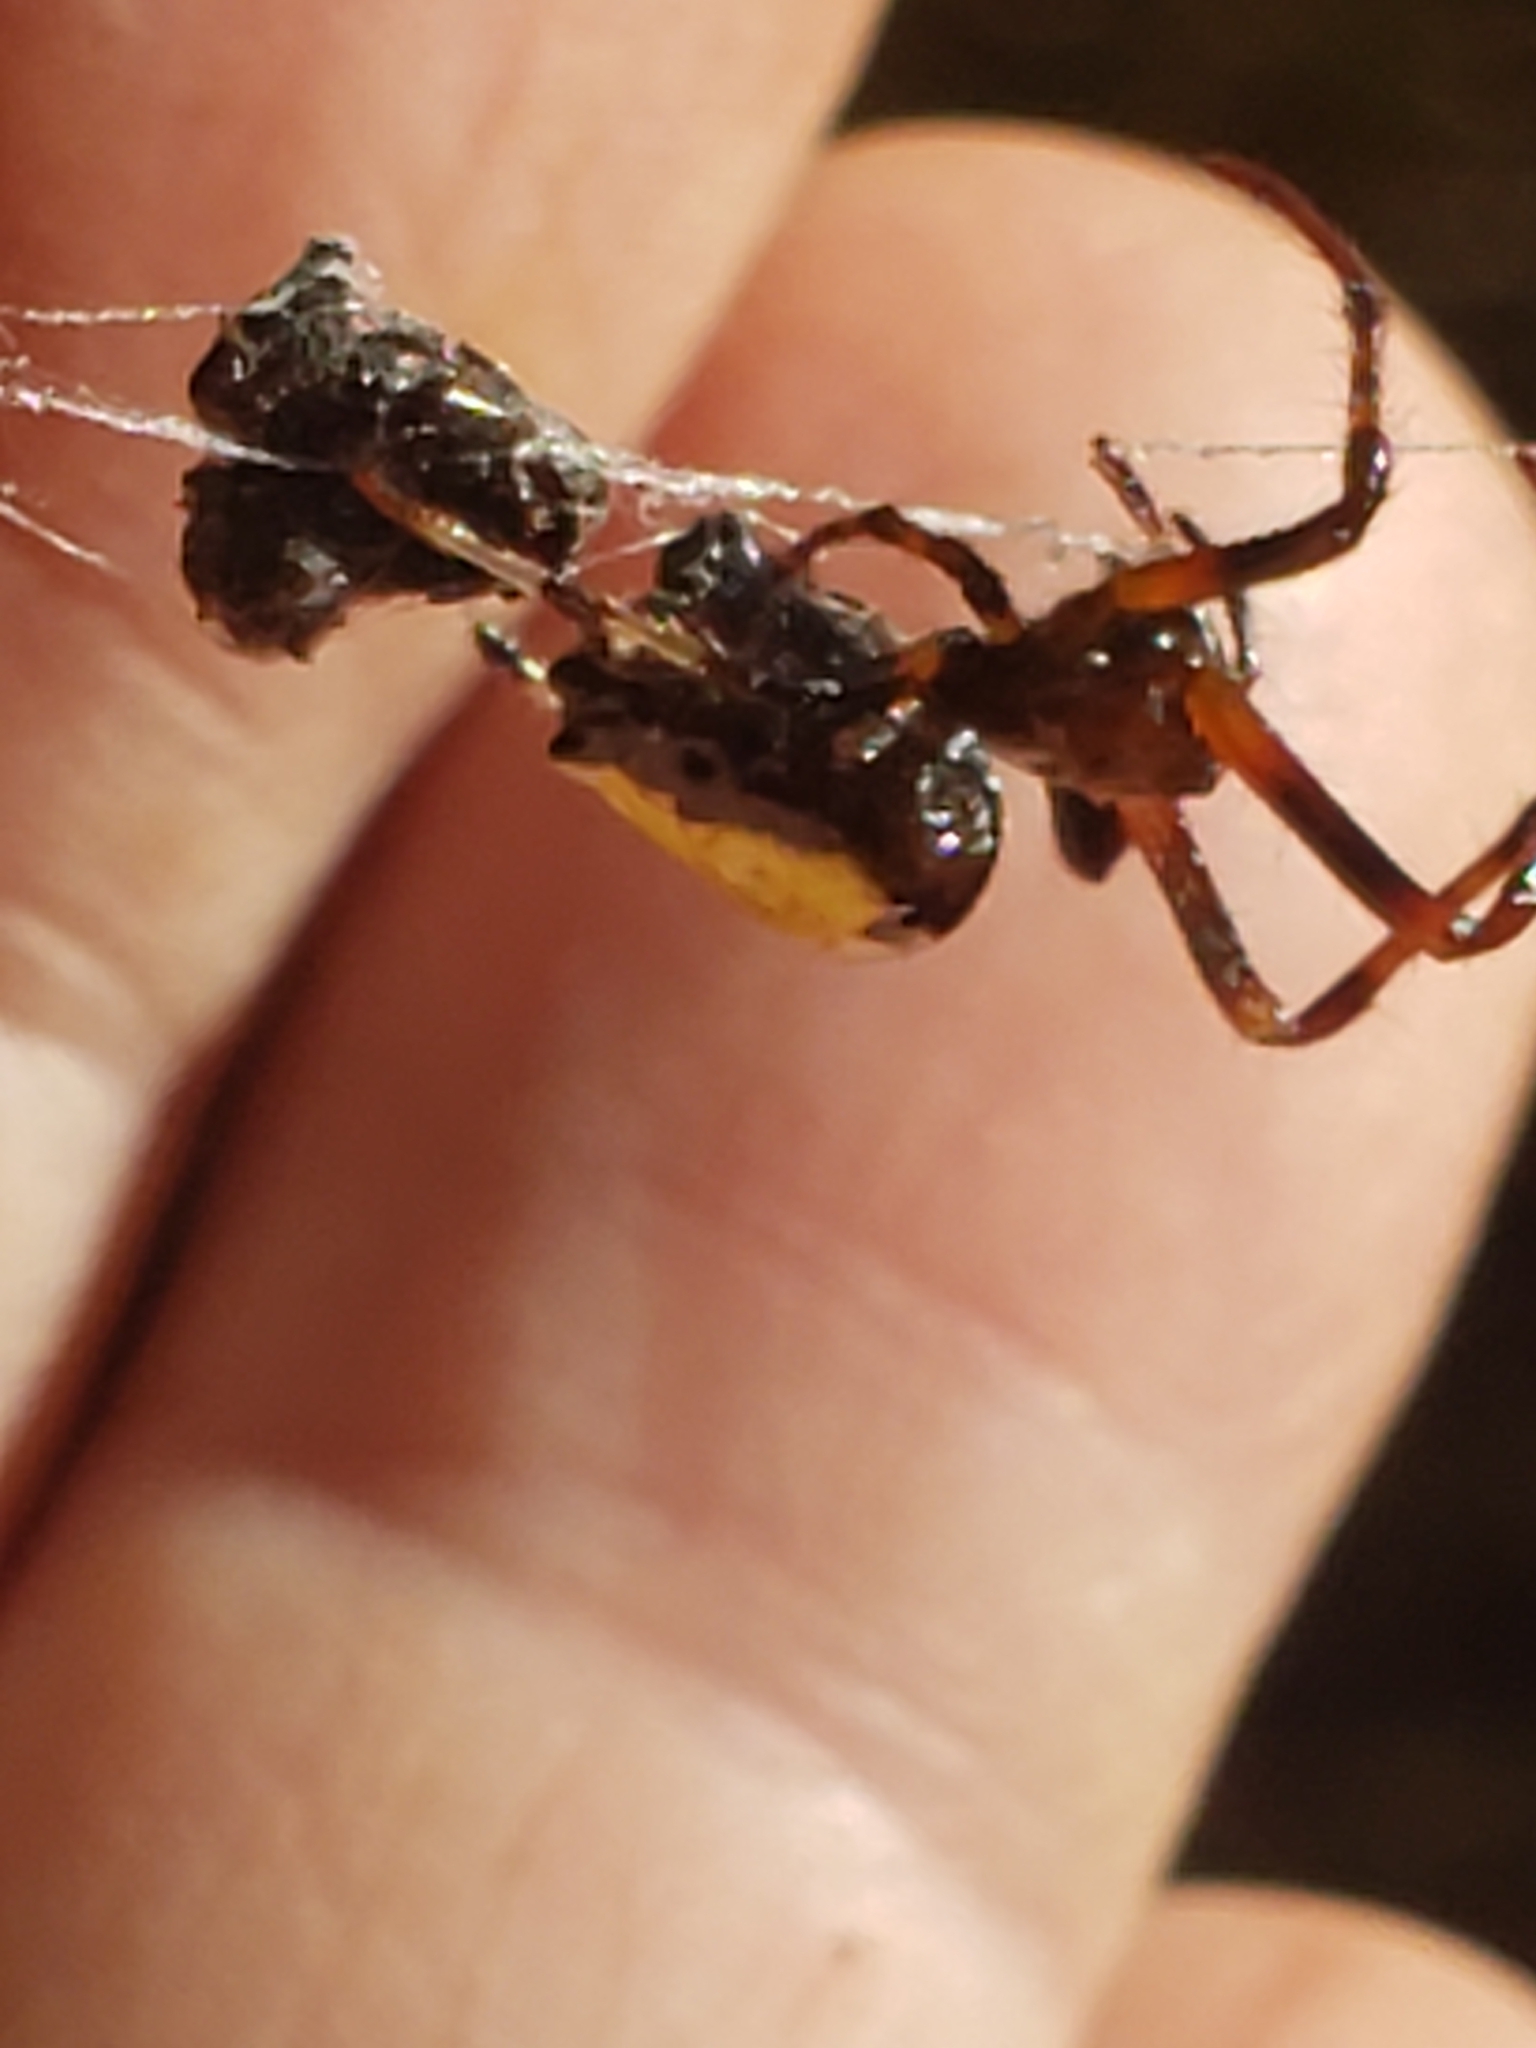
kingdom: Animalia
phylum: Arthropoda
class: Arachnida
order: Araneae
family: Araneidae
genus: Verrucosa
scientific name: Verrucosa arenata
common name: Orb weavers
